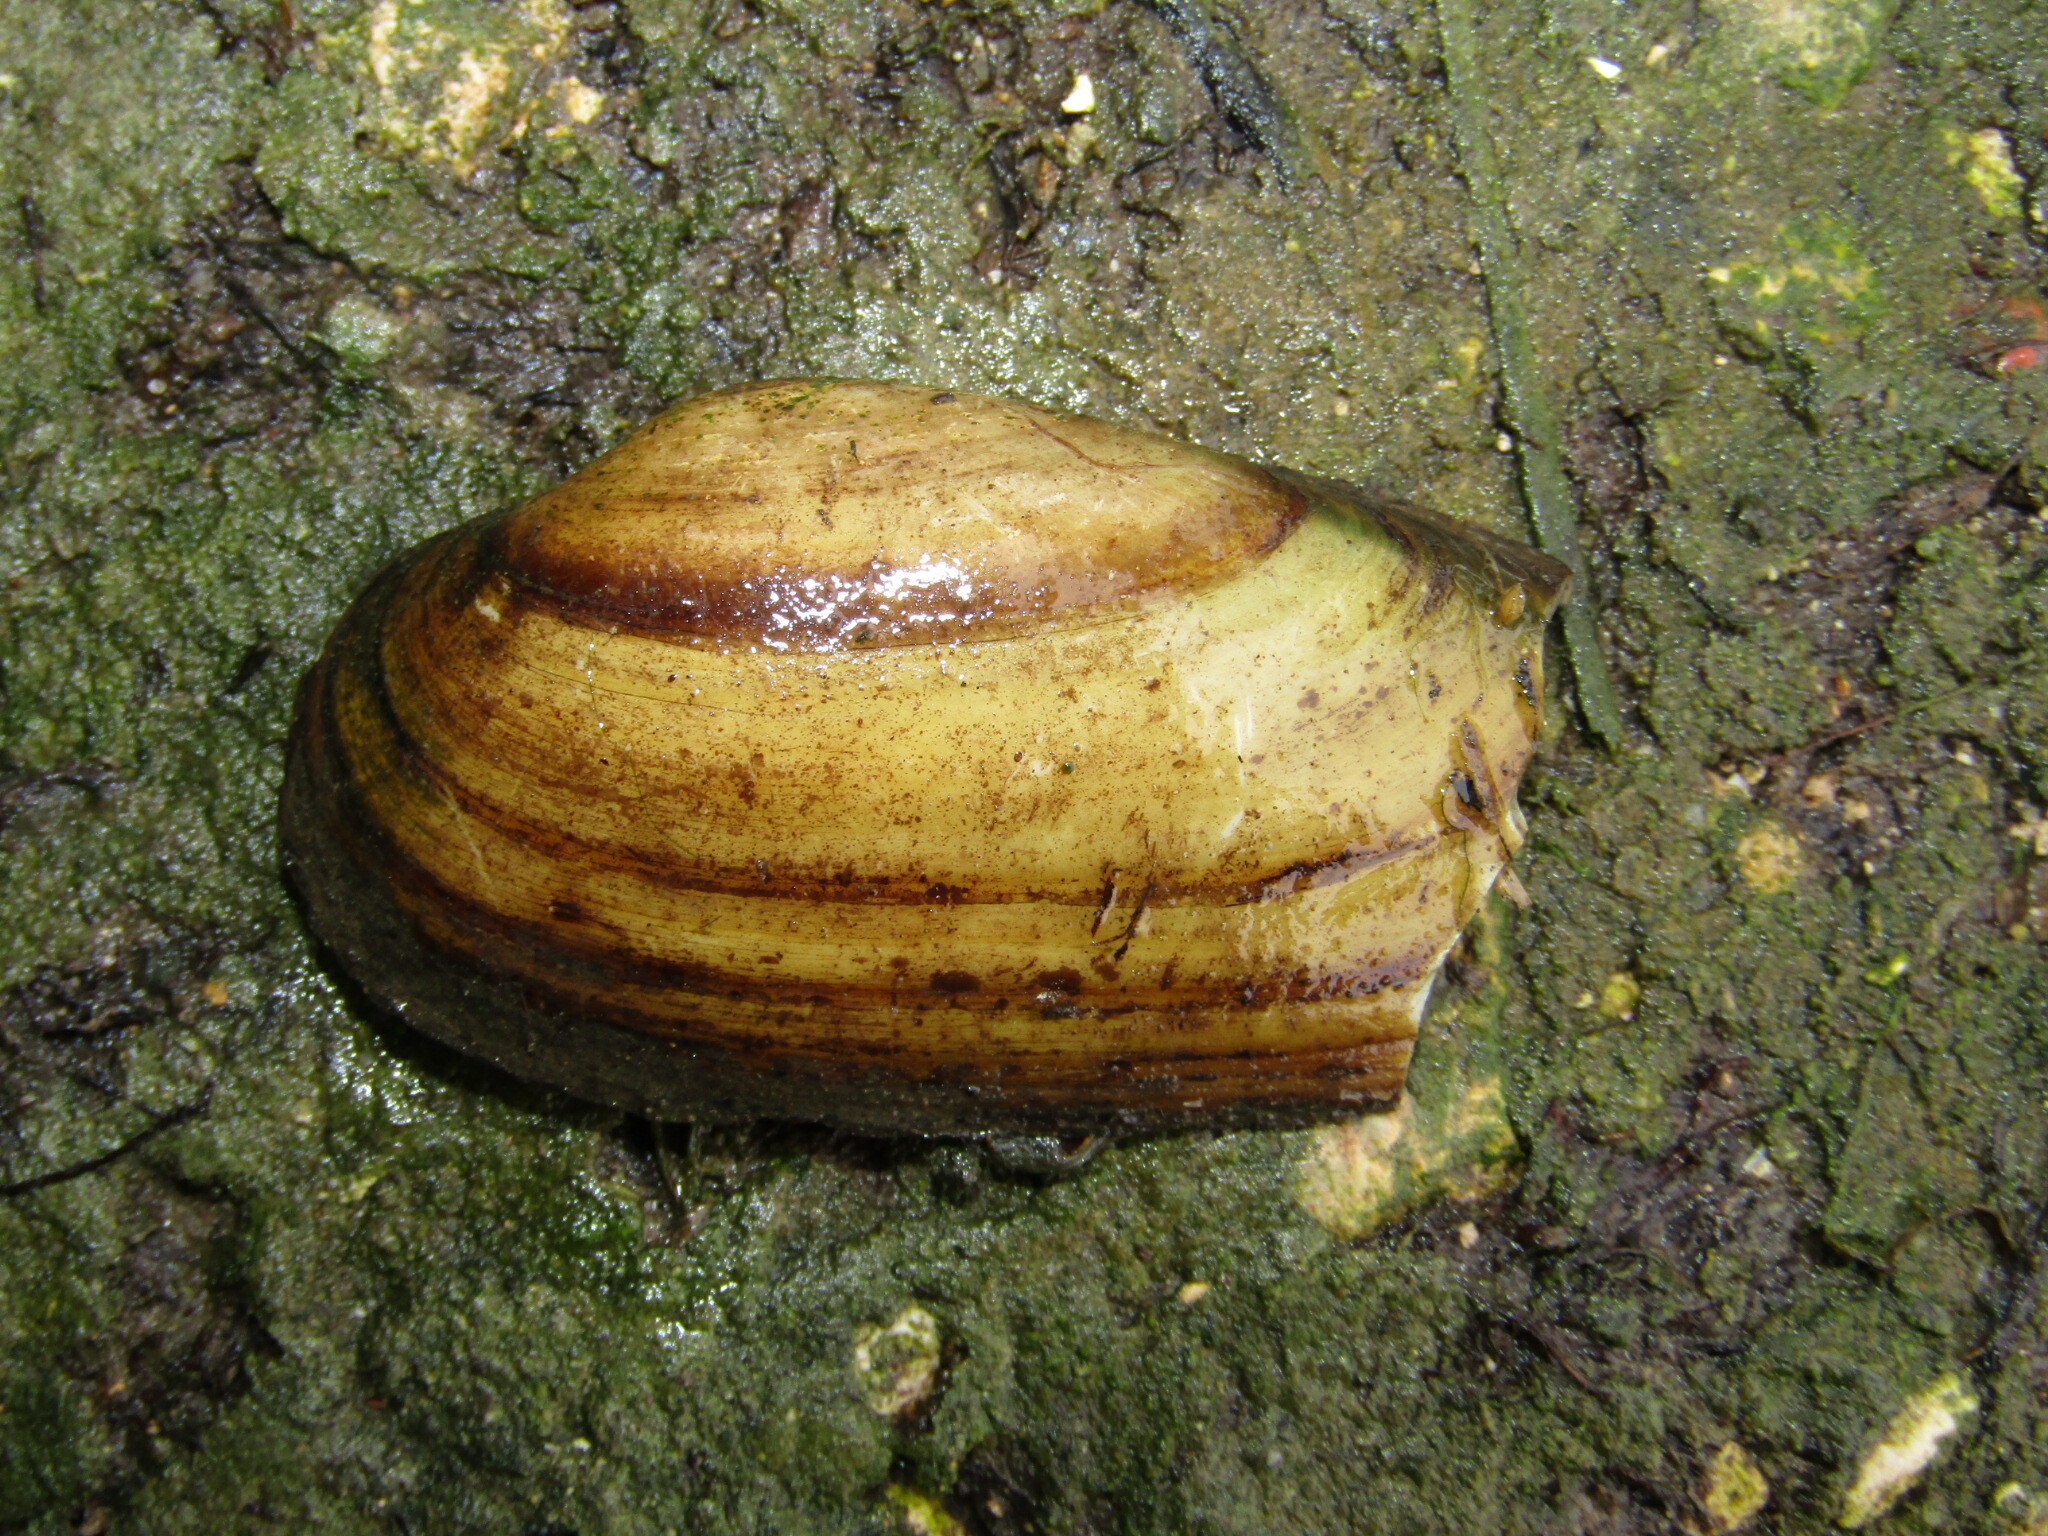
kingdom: Animalia
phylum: Mollusca
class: Bivalvia
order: Unionida
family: Unionidae
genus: Unio
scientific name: Unio pictorum
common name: Painter's mussel
